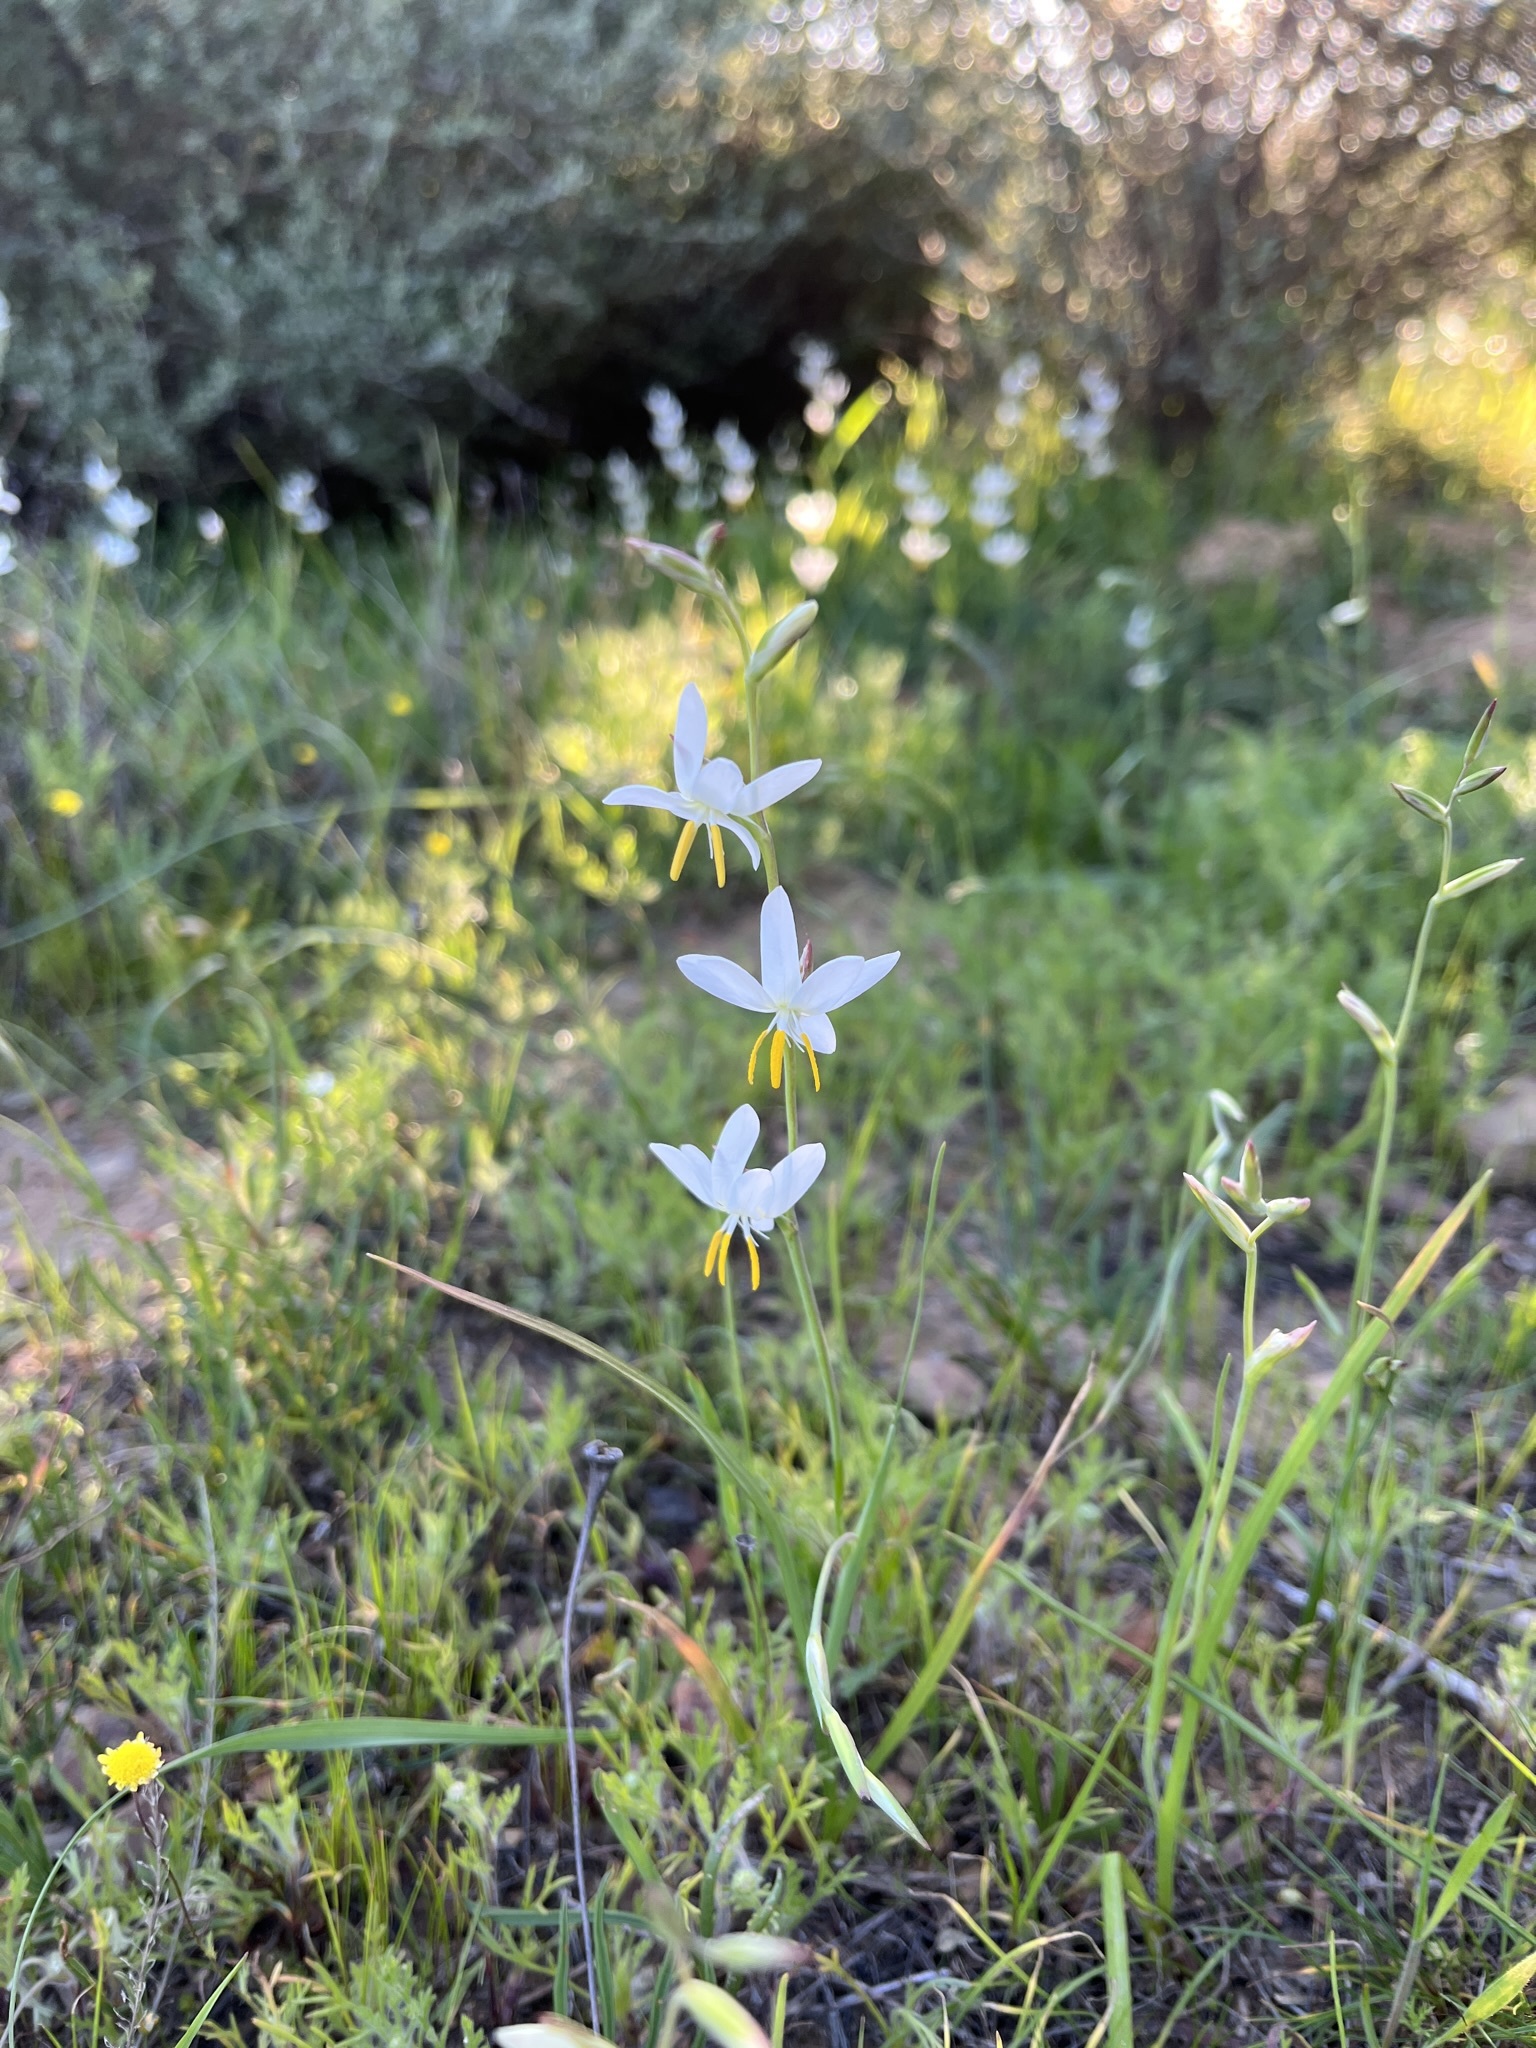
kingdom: Plantae
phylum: Tracheophyta
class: Liliopsida
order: Asparagales
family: Iridaceae
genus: Hesperantha
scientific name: Hesperantha bachmannii
